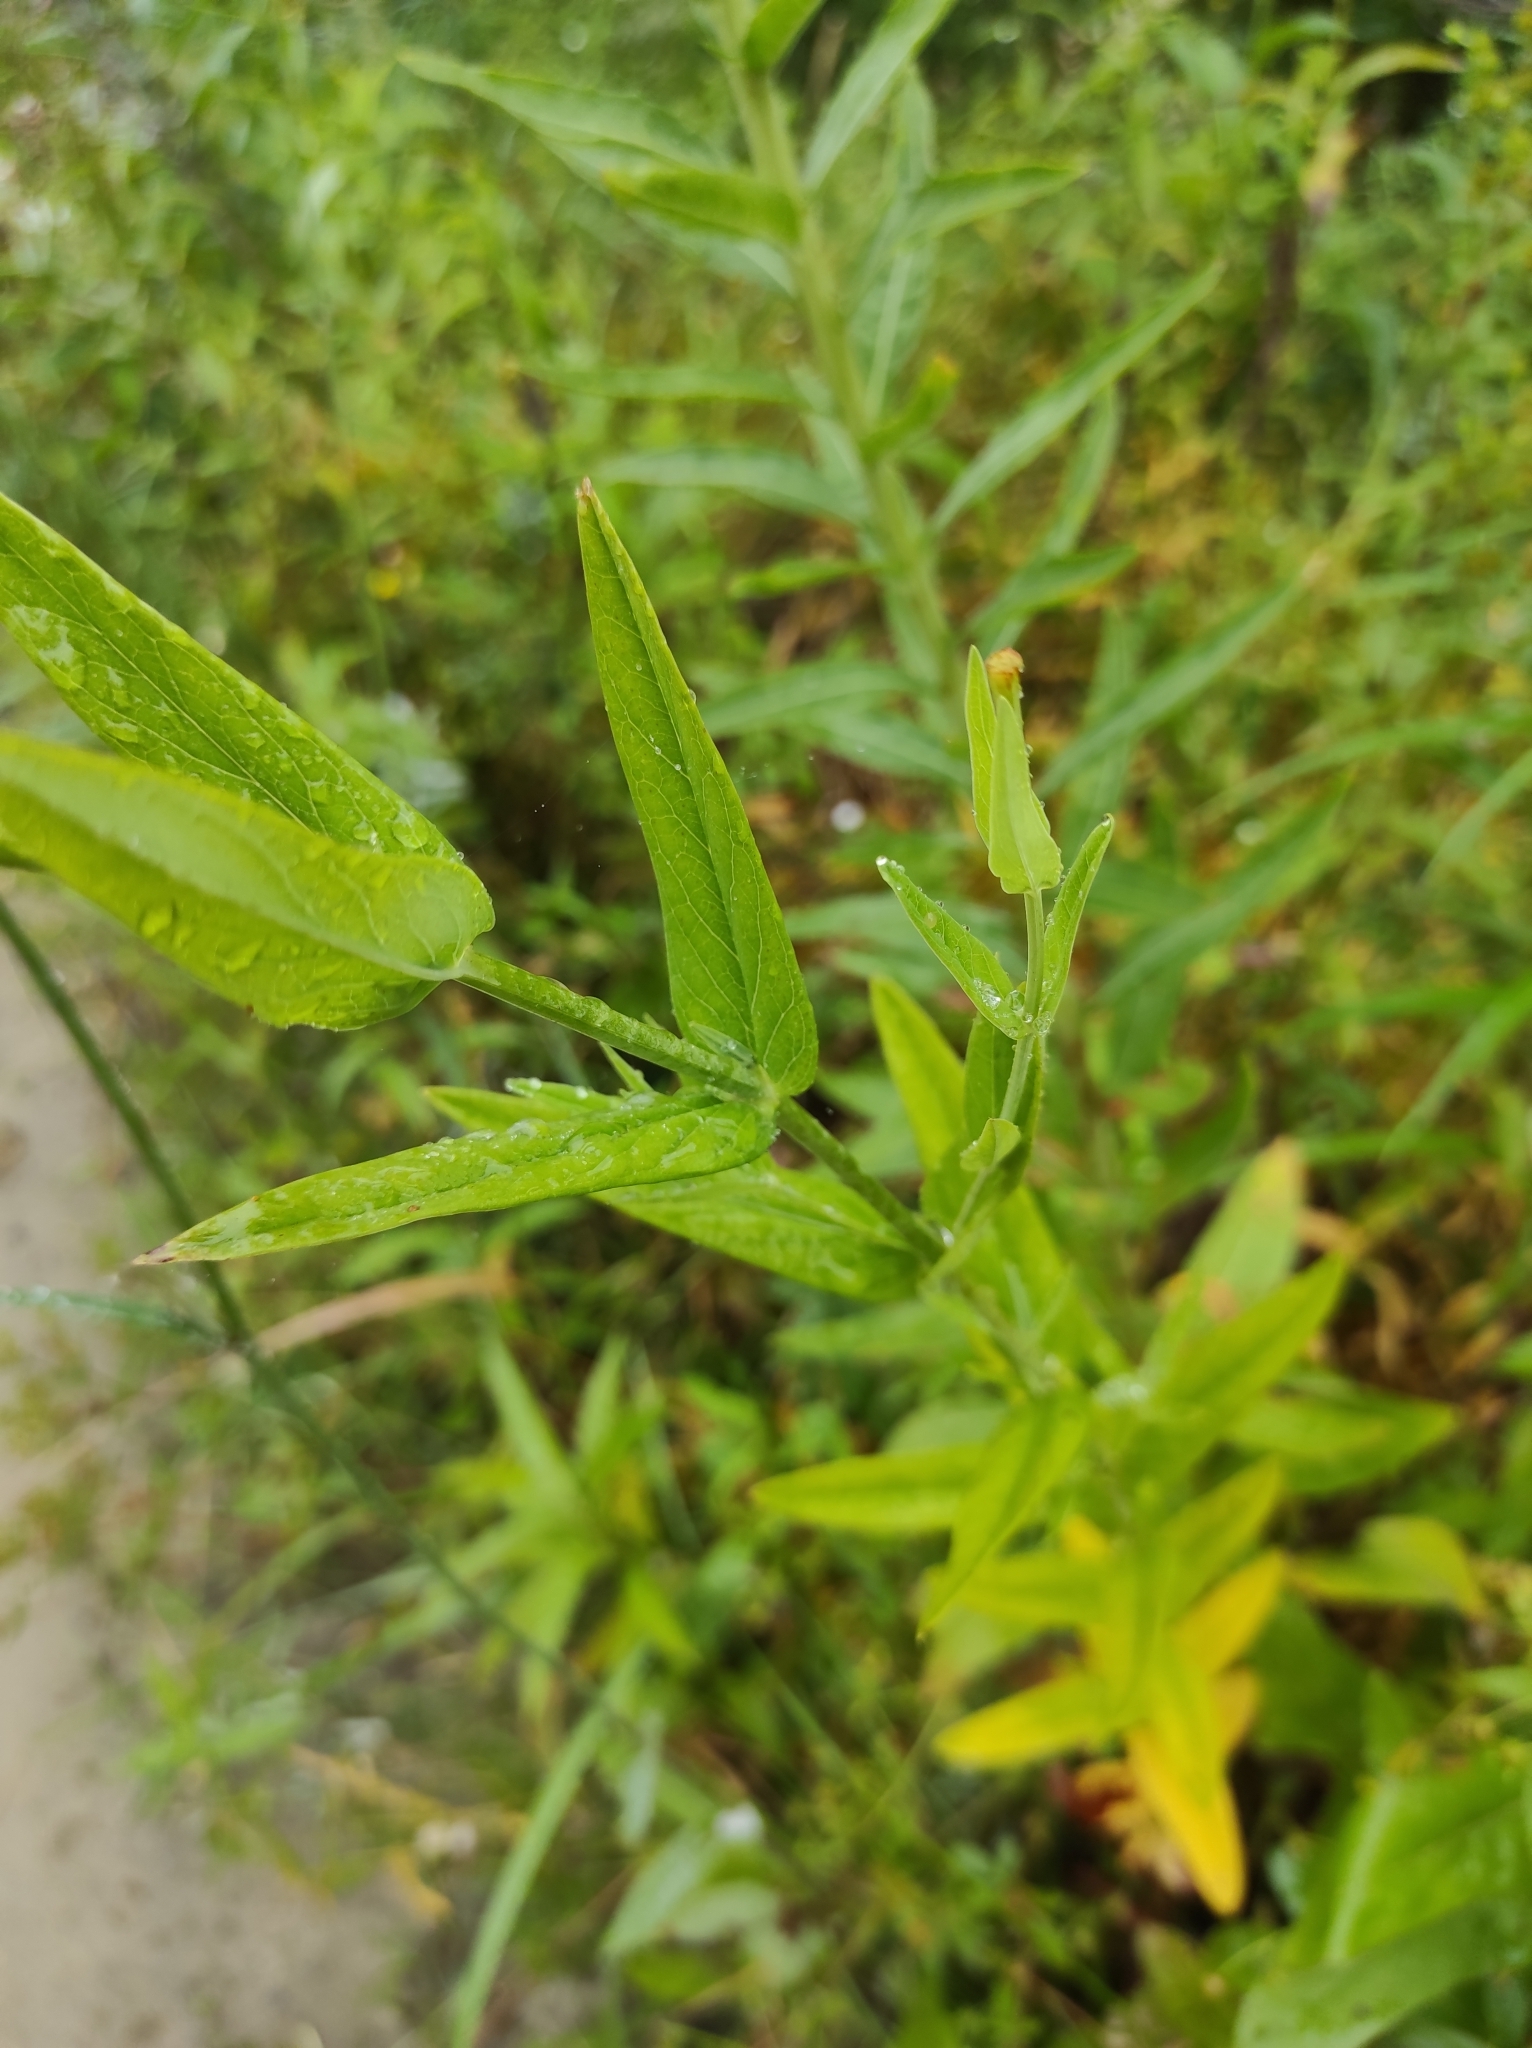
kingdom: Plantae
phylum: Tracheophyta
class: Magnoliopsida
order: Malpighiales
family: Hypericaceae
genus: Hypericum
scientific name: Hypericum ascyron
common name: Giant st. john's-wort
